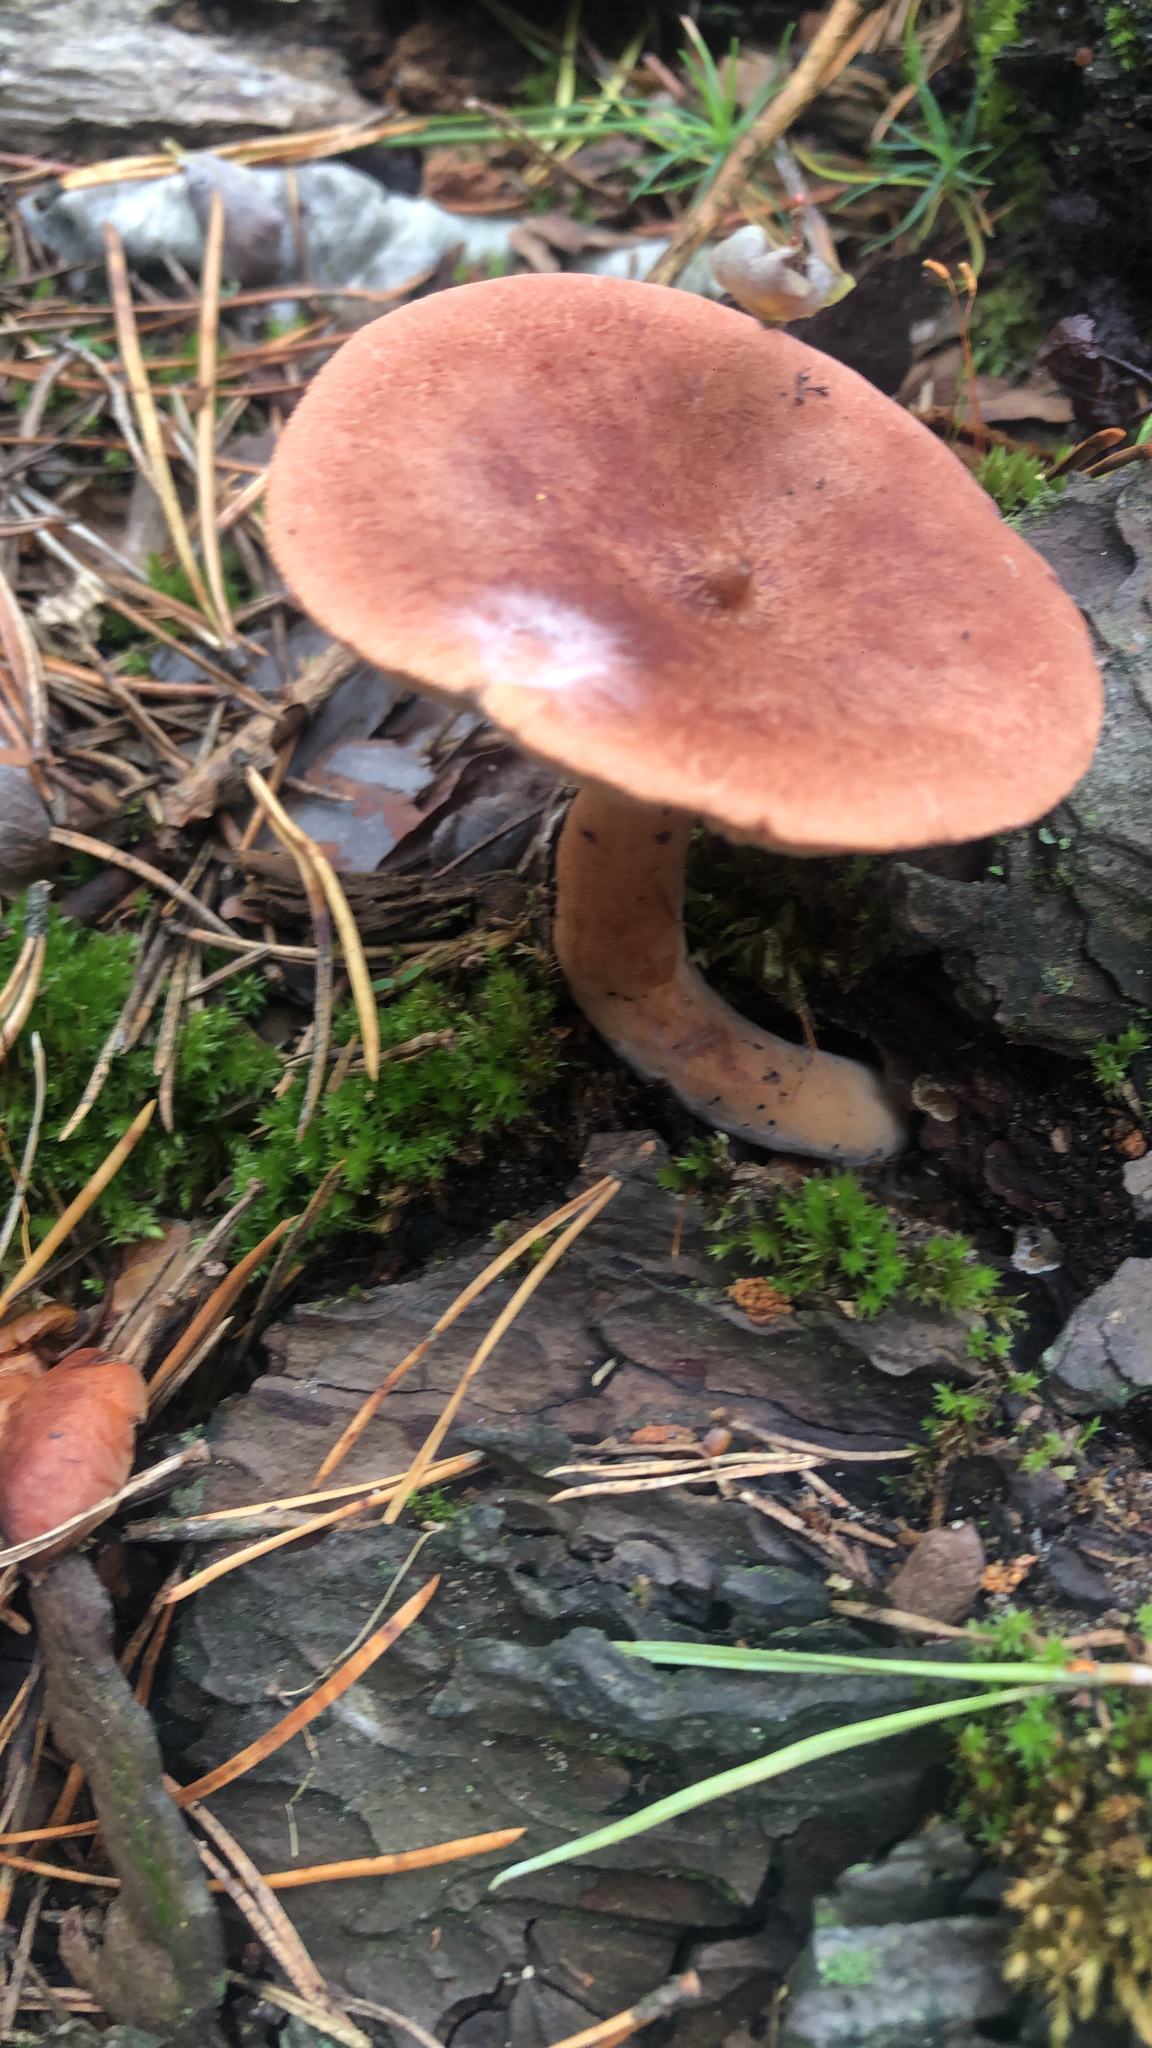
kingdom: Fungi
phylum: Basidiomycota
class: Agaricomycetes
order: Russulales
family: Russulaceae
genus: Lactarius
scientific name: Lactarius rufus
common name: Rufous milk-cap
